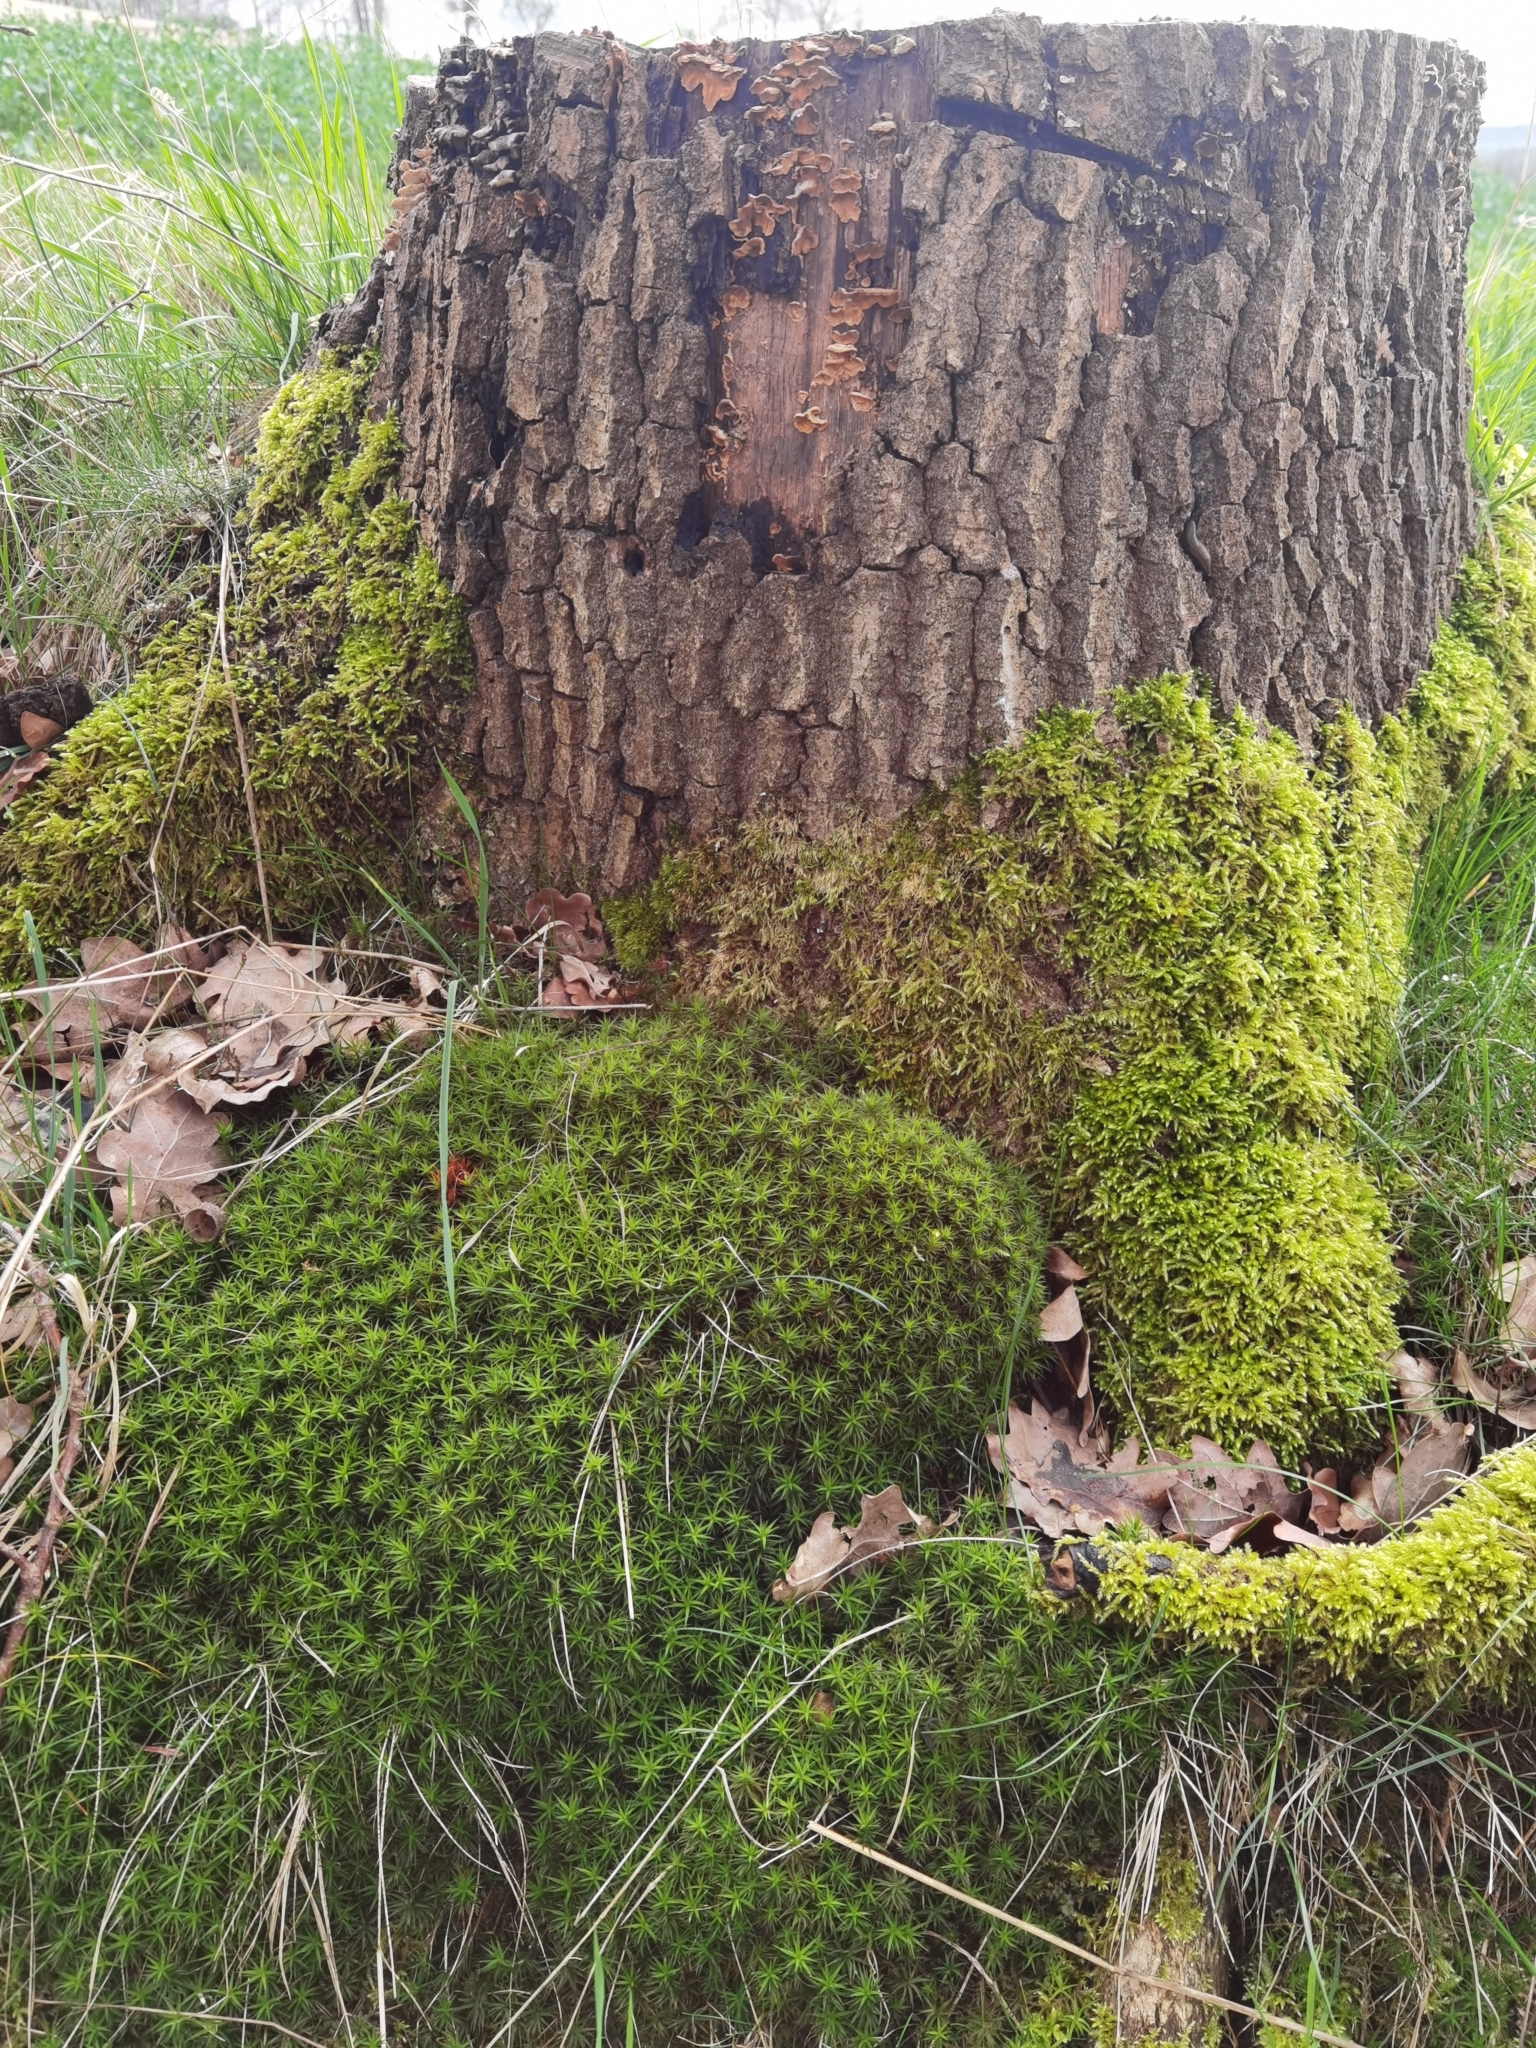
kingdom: Plantae
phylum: Bryophyta
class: Polytrichopsida
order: Polytrichales
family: Polytrichaceae
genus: Polytrichum
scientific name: Polytrichum formosum
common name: Bank haircap moss
